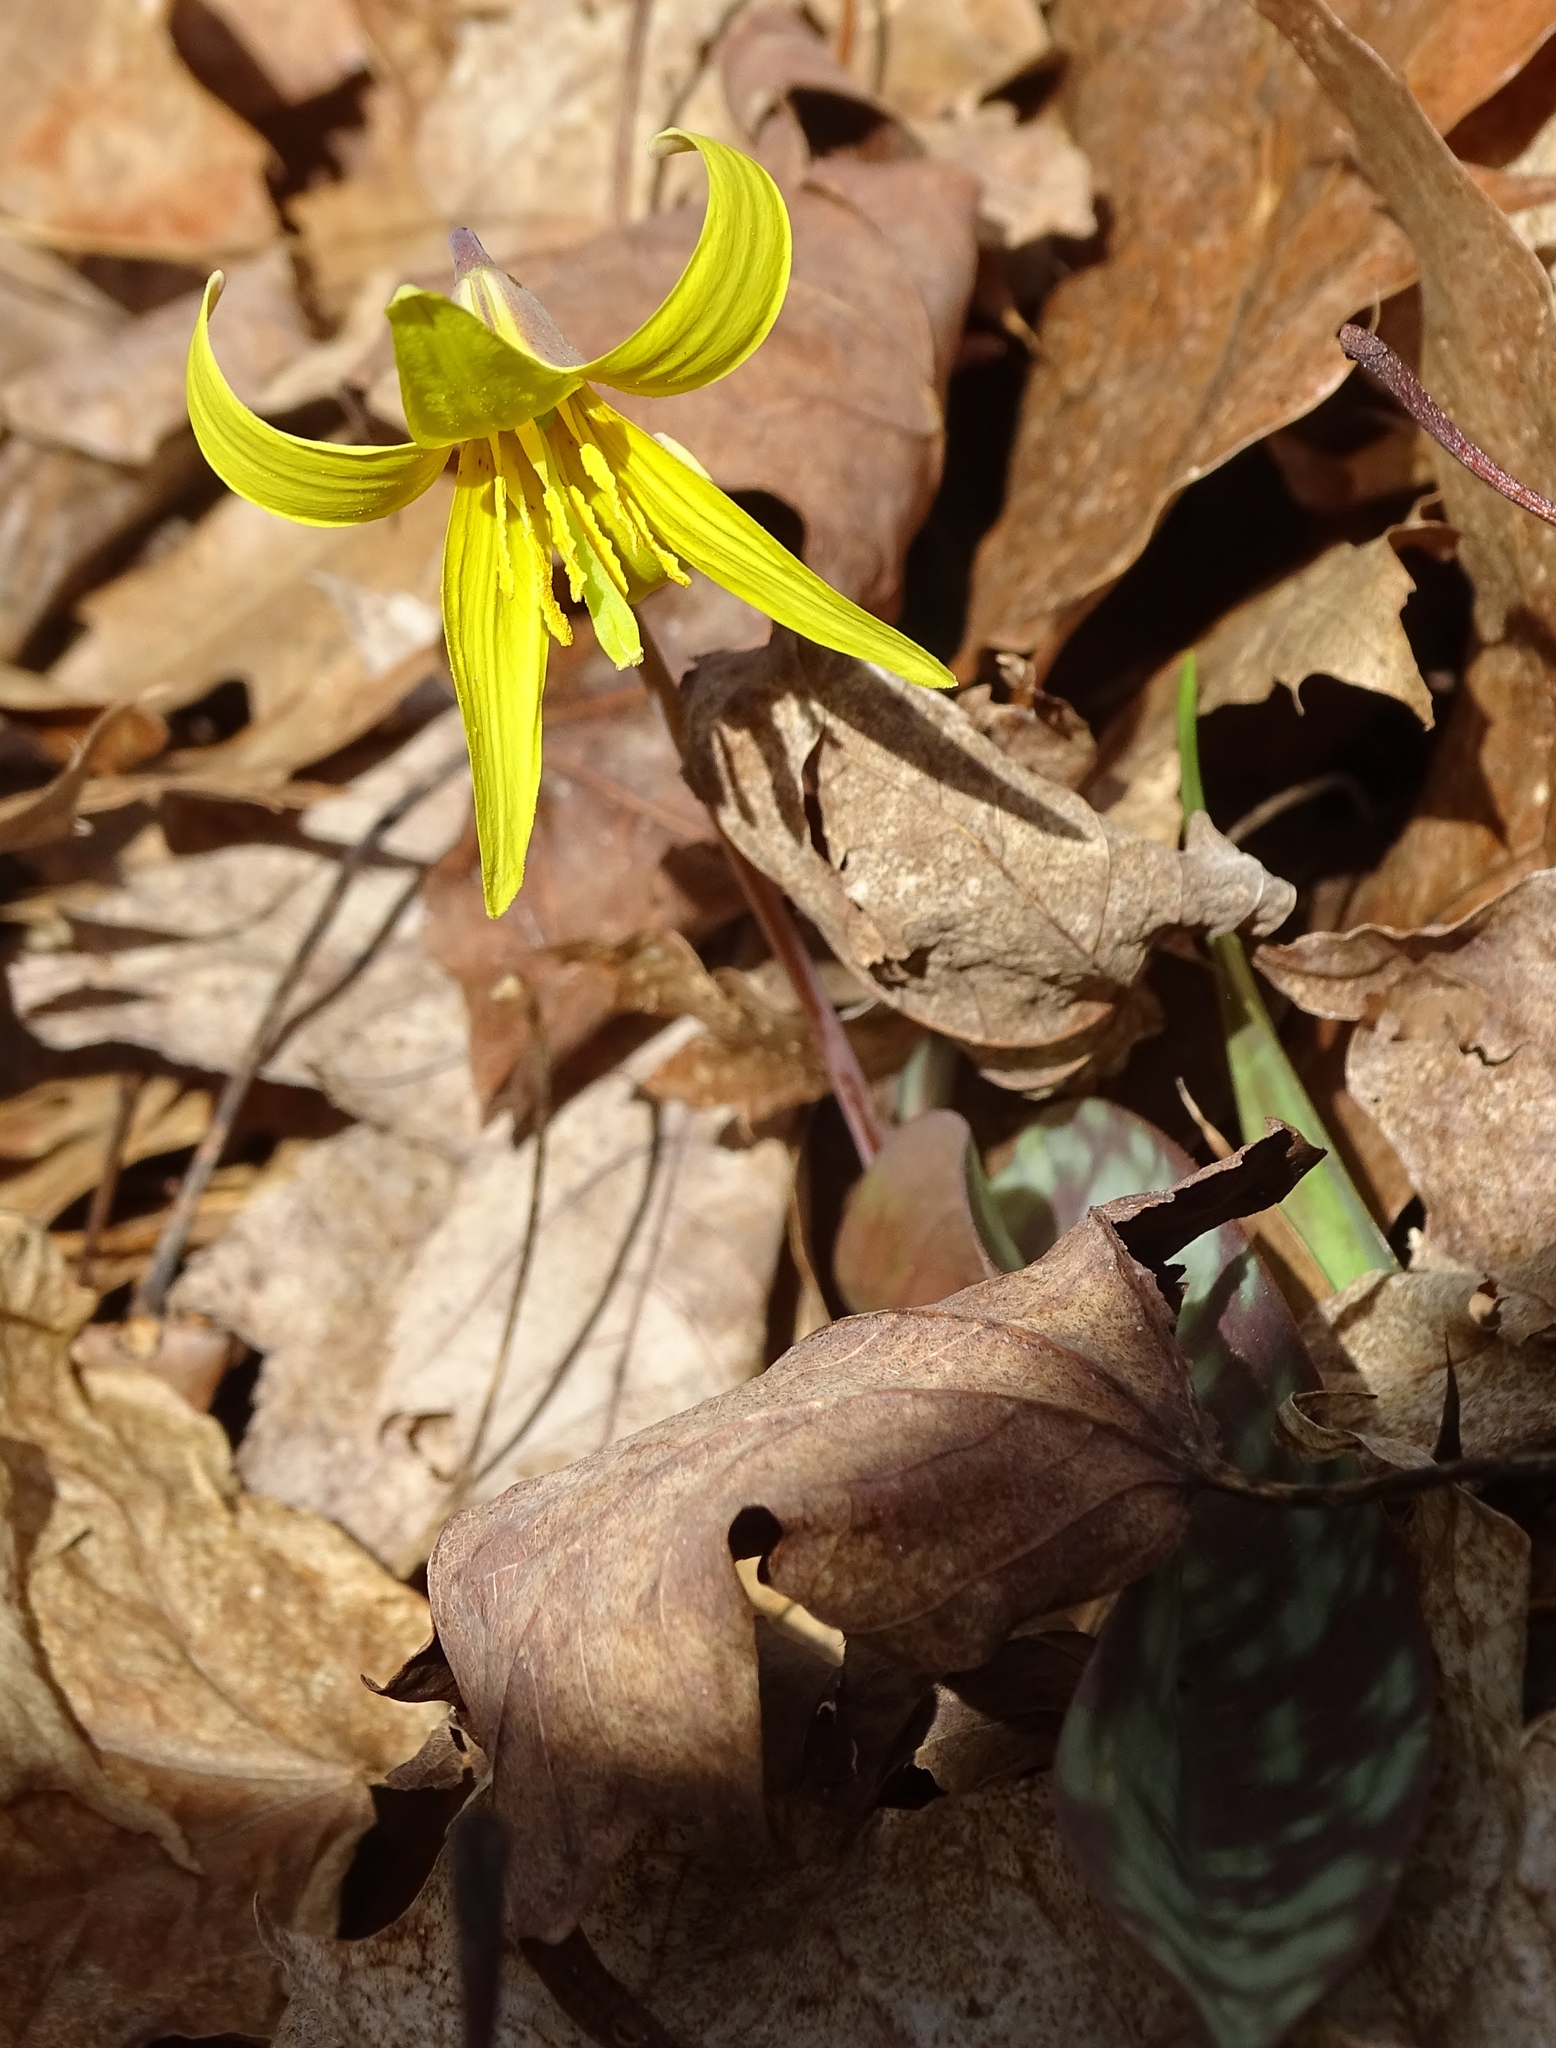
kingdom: Plantae
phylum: Tracheophyta
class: Liliopsida
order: Liliales
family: Liliaceae
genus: Erythronium
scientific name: Erythronium americanum
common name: Yellow adder's-tongue
